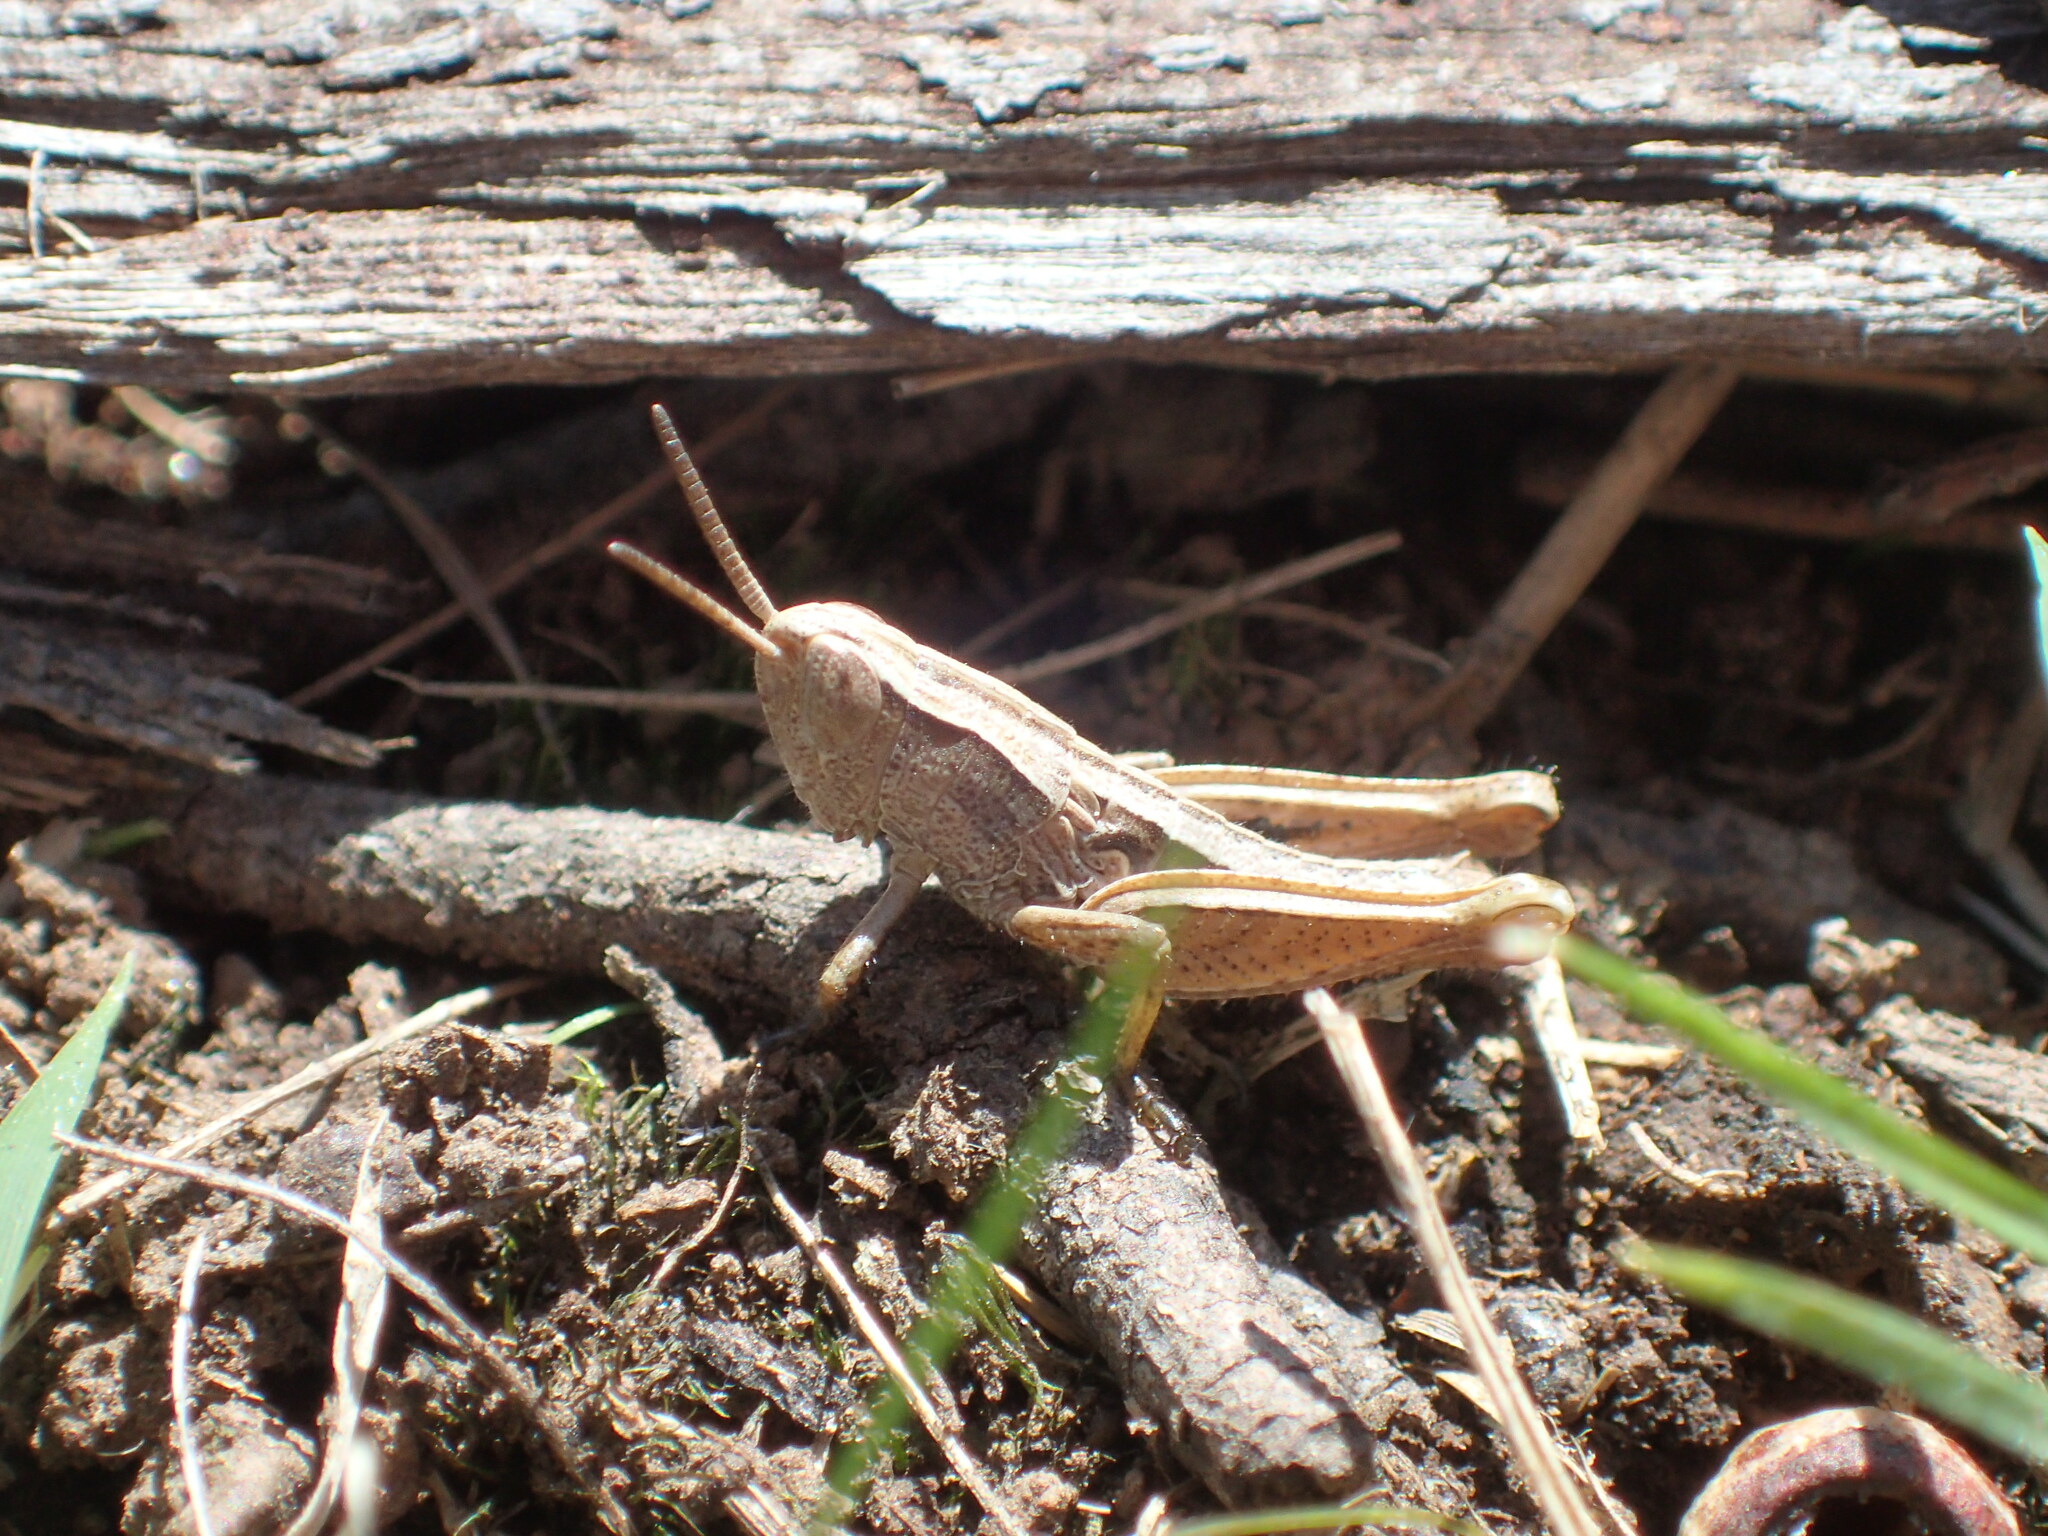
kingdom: Animalia
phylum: Arthropoda
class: Insecta
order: Orthoptera
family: Acrididae
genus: Phaulacridium
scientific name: Phaulacridium vittatum
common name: Wingless grasshopper
